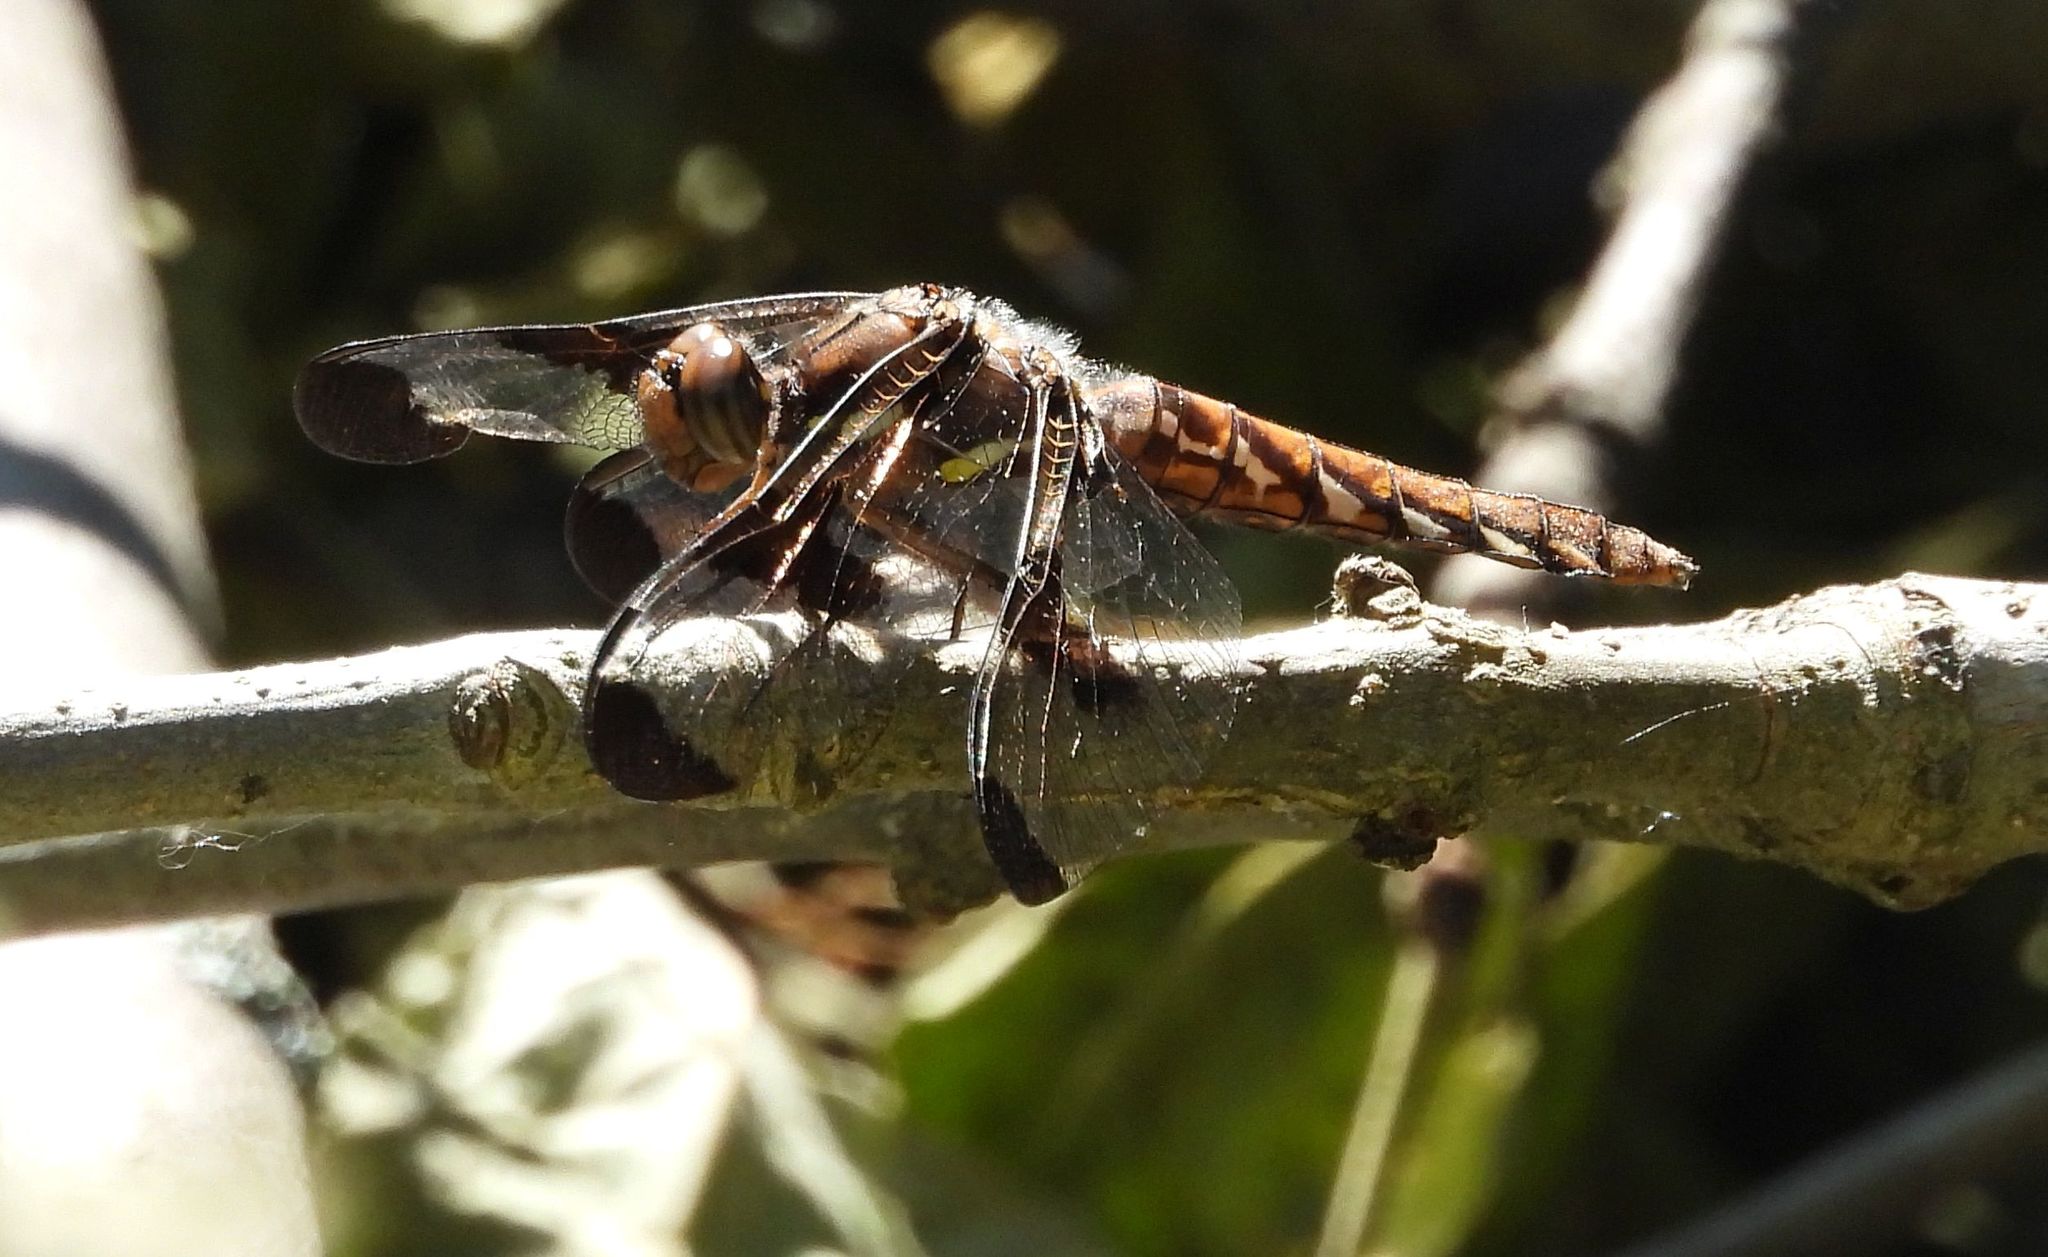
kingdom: Animalia
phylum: Arthropoda
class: Insecta
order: Odonata
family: Libellulidae
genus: Plathemis
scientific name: Plathemis lydia
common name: Common whitetail
